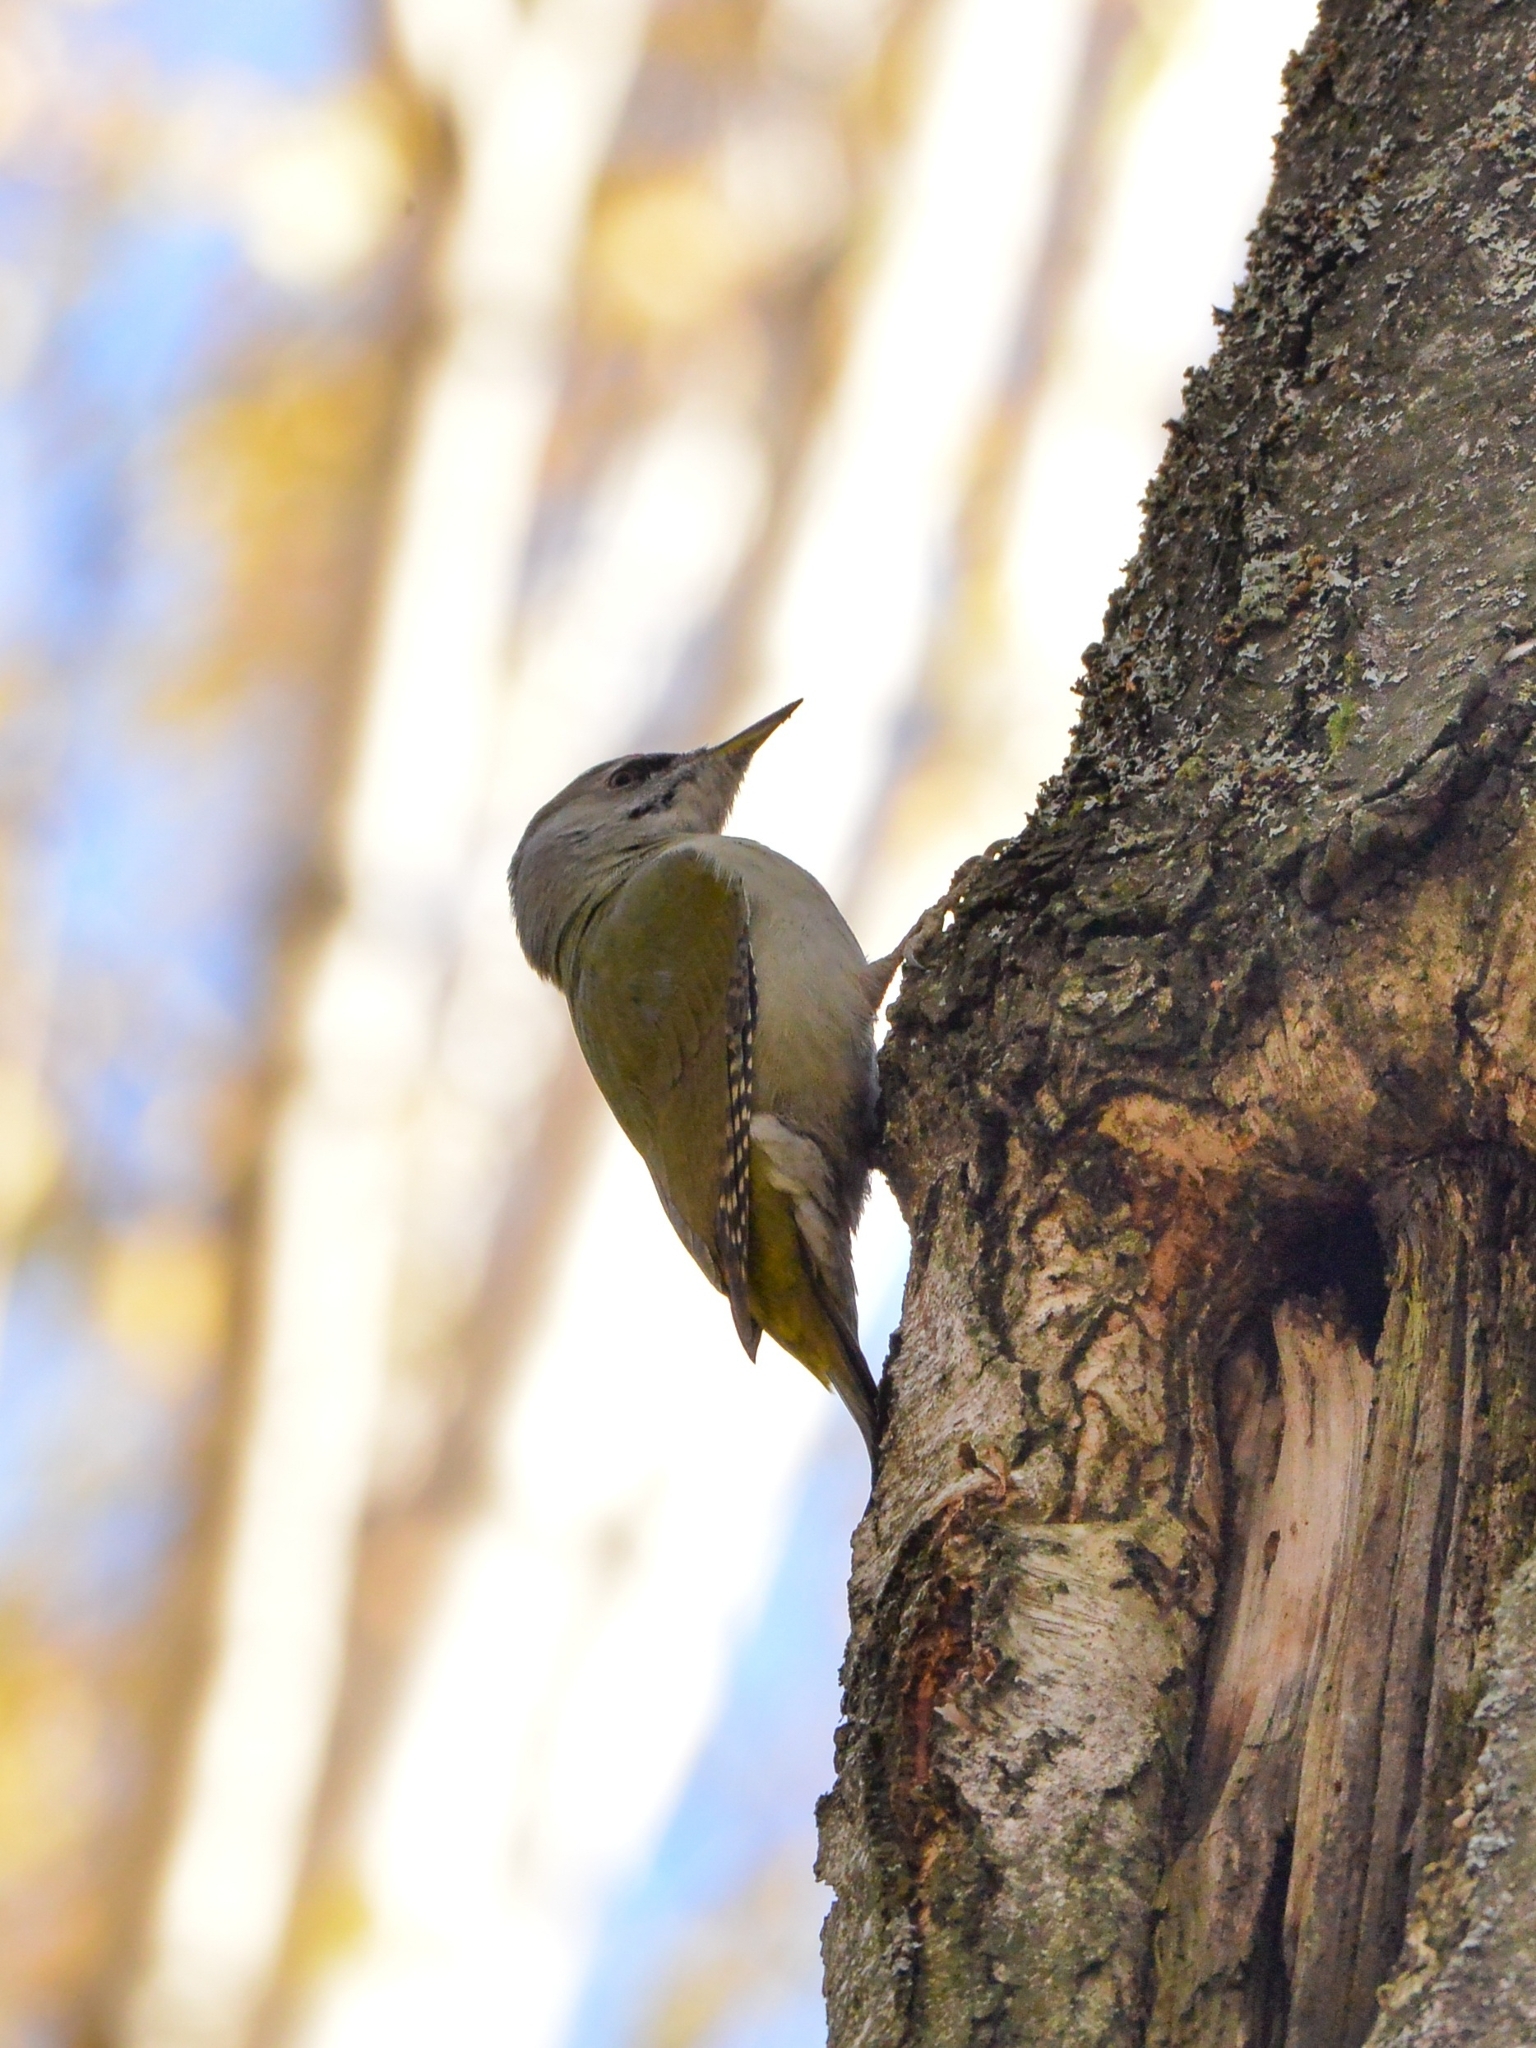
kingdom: Animalia
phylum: Chordata
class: Aves
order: Piciformes
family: Picidae
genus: Picus
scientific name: Picus canus
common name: Grey-headed woodpecker
